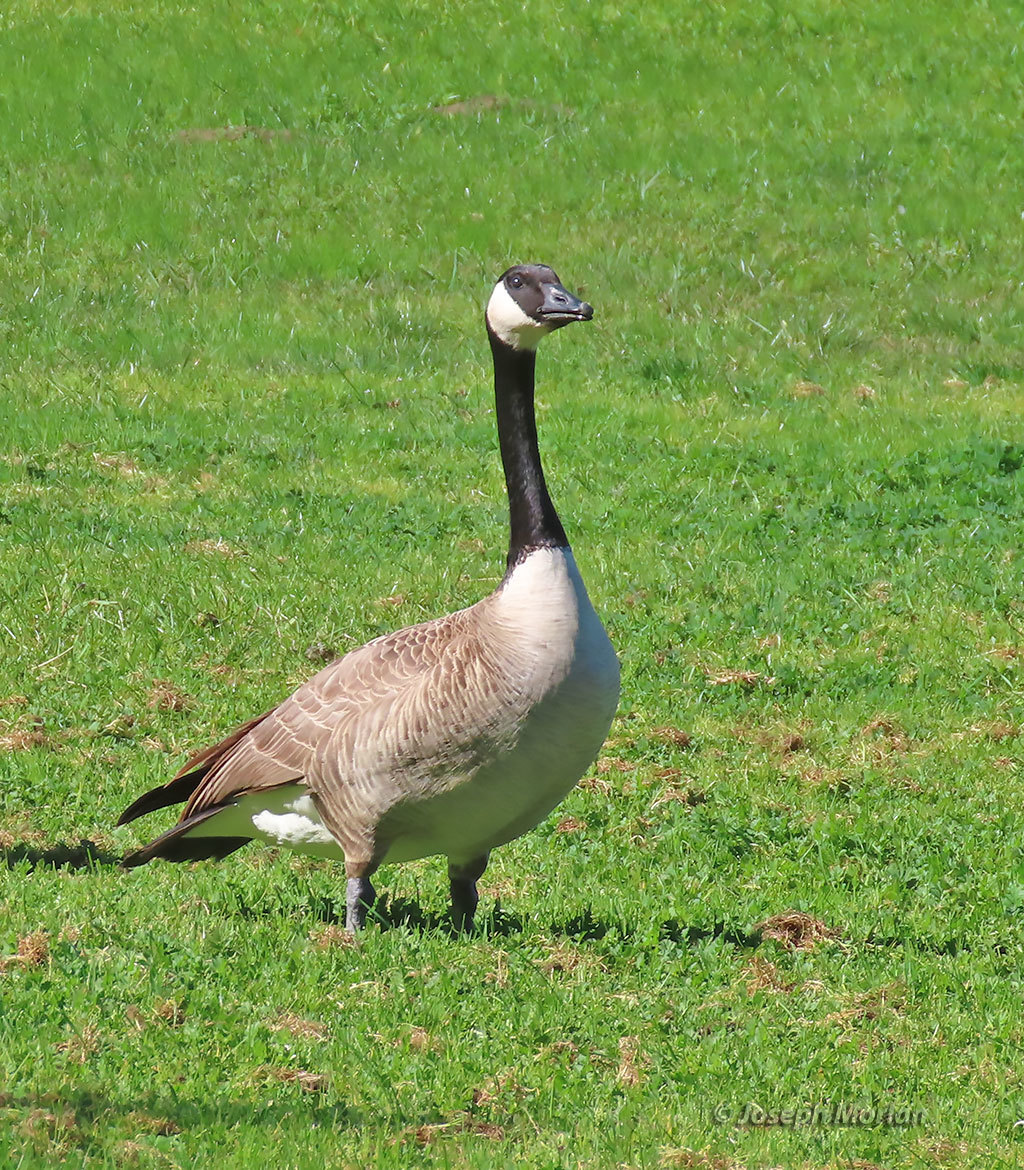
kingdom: Animalia
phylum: Chordata
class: Aves
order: Anseriformes
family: Anatidae
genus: Branta
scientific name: Branta canadensis
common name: Canada goose
